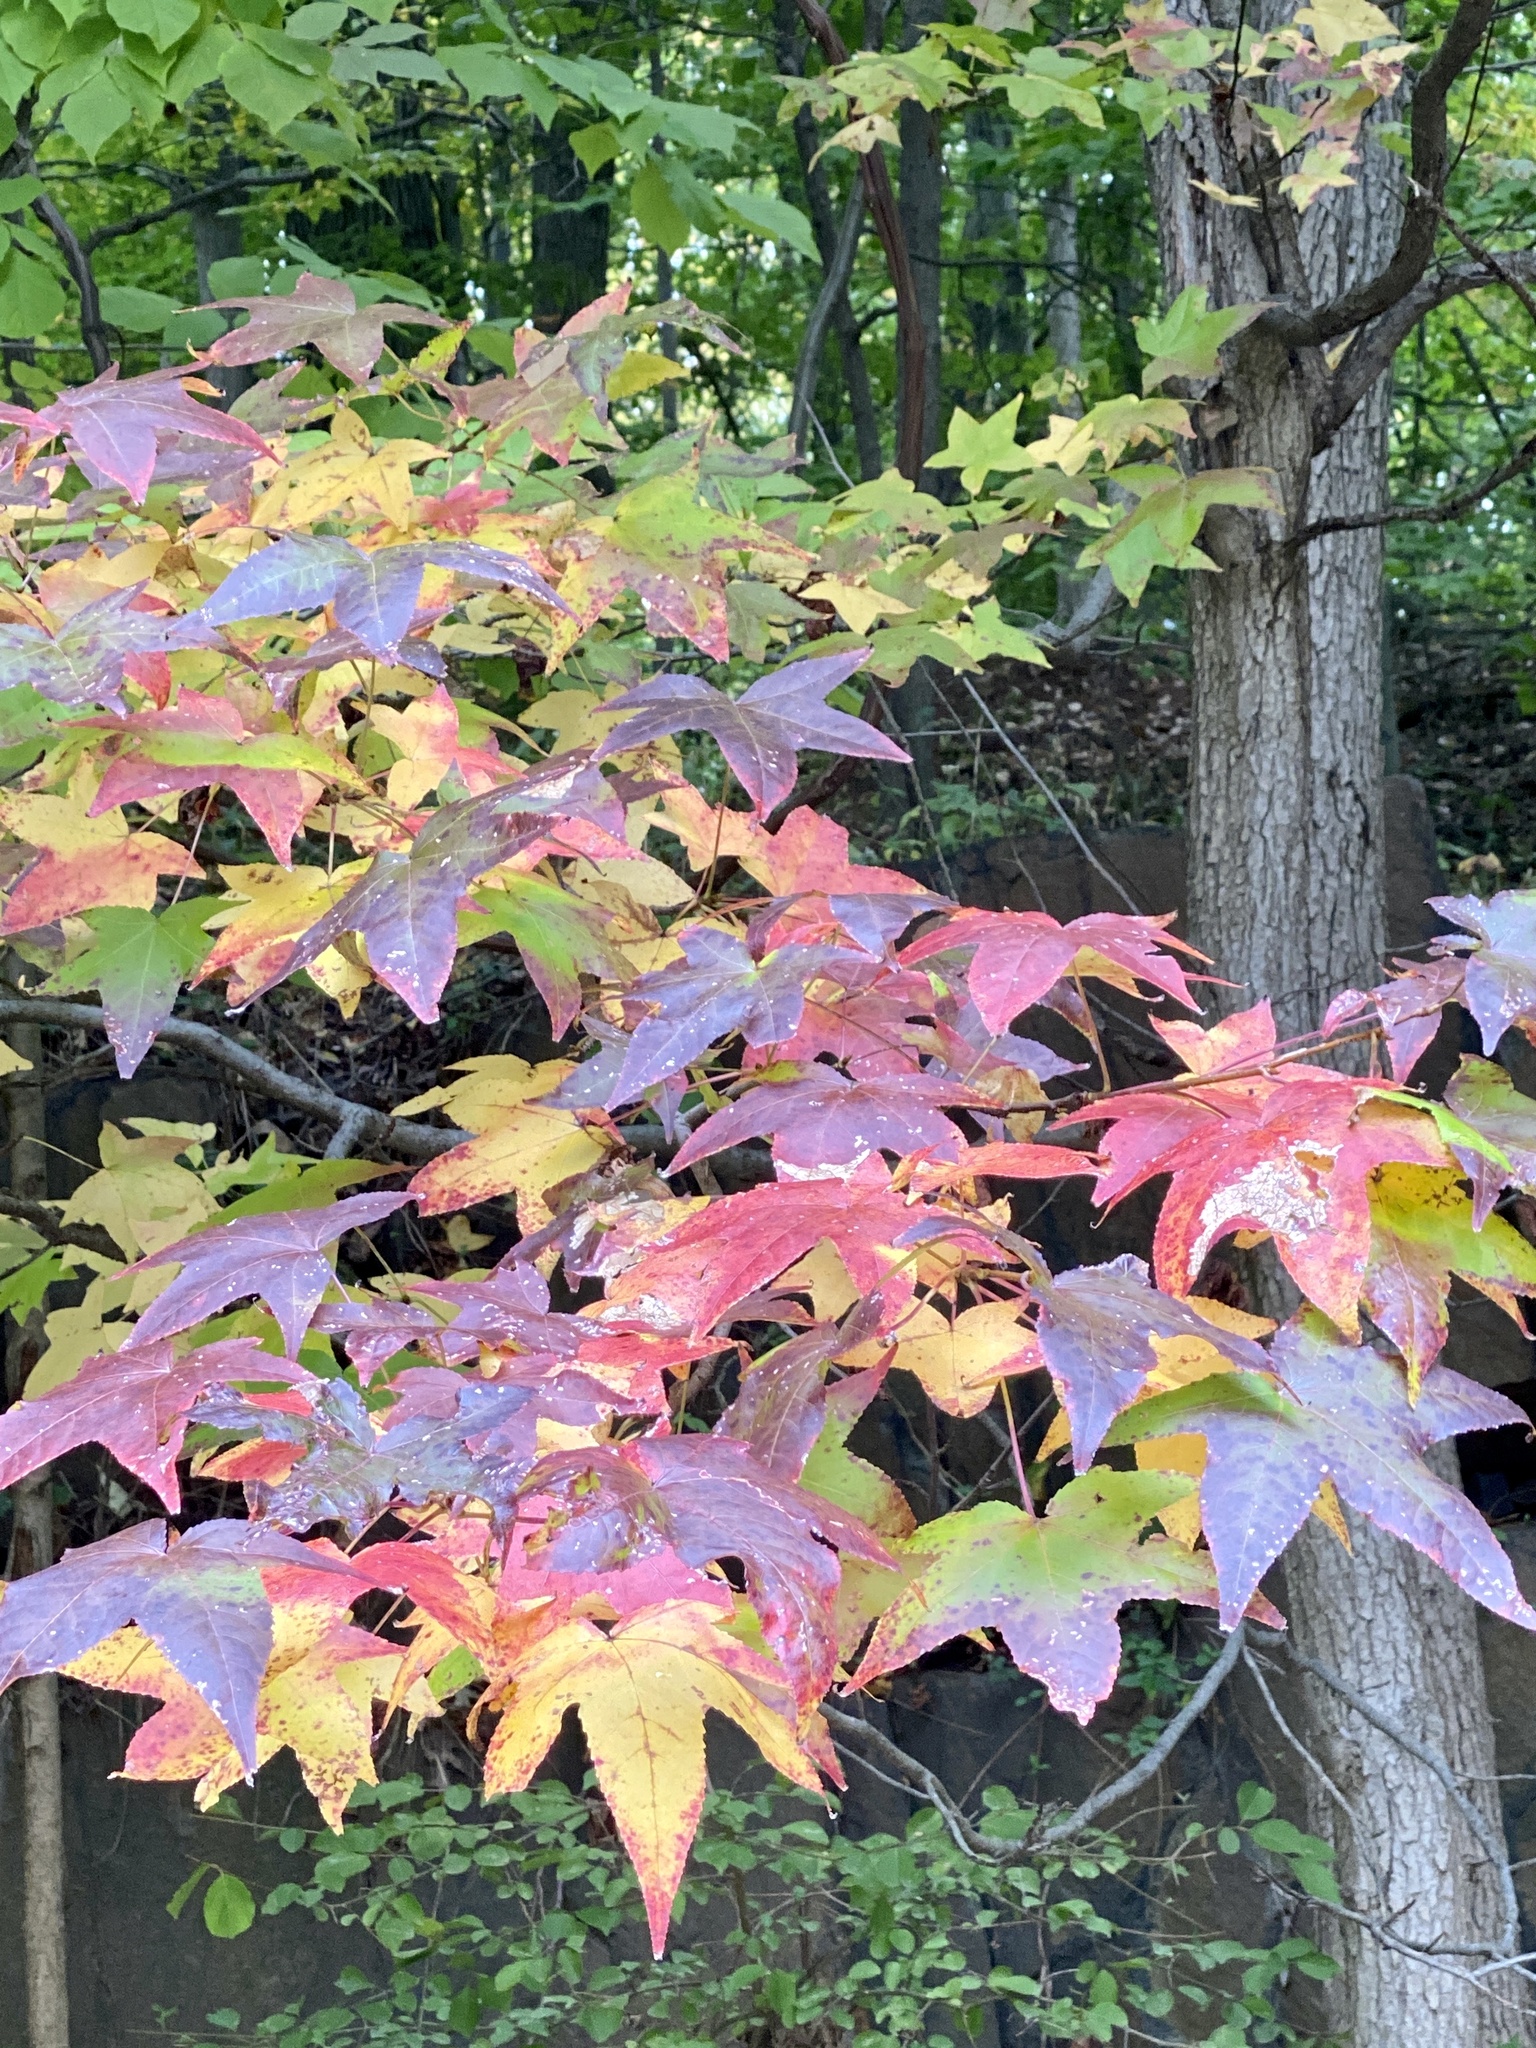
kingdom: Plantae
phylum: Tracheophyta
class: Magnoliopsida
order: Saxifragales
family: Altingiaceae
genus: Liquidambar
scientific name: Liquidambar styraciflua
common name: Sweet gum
